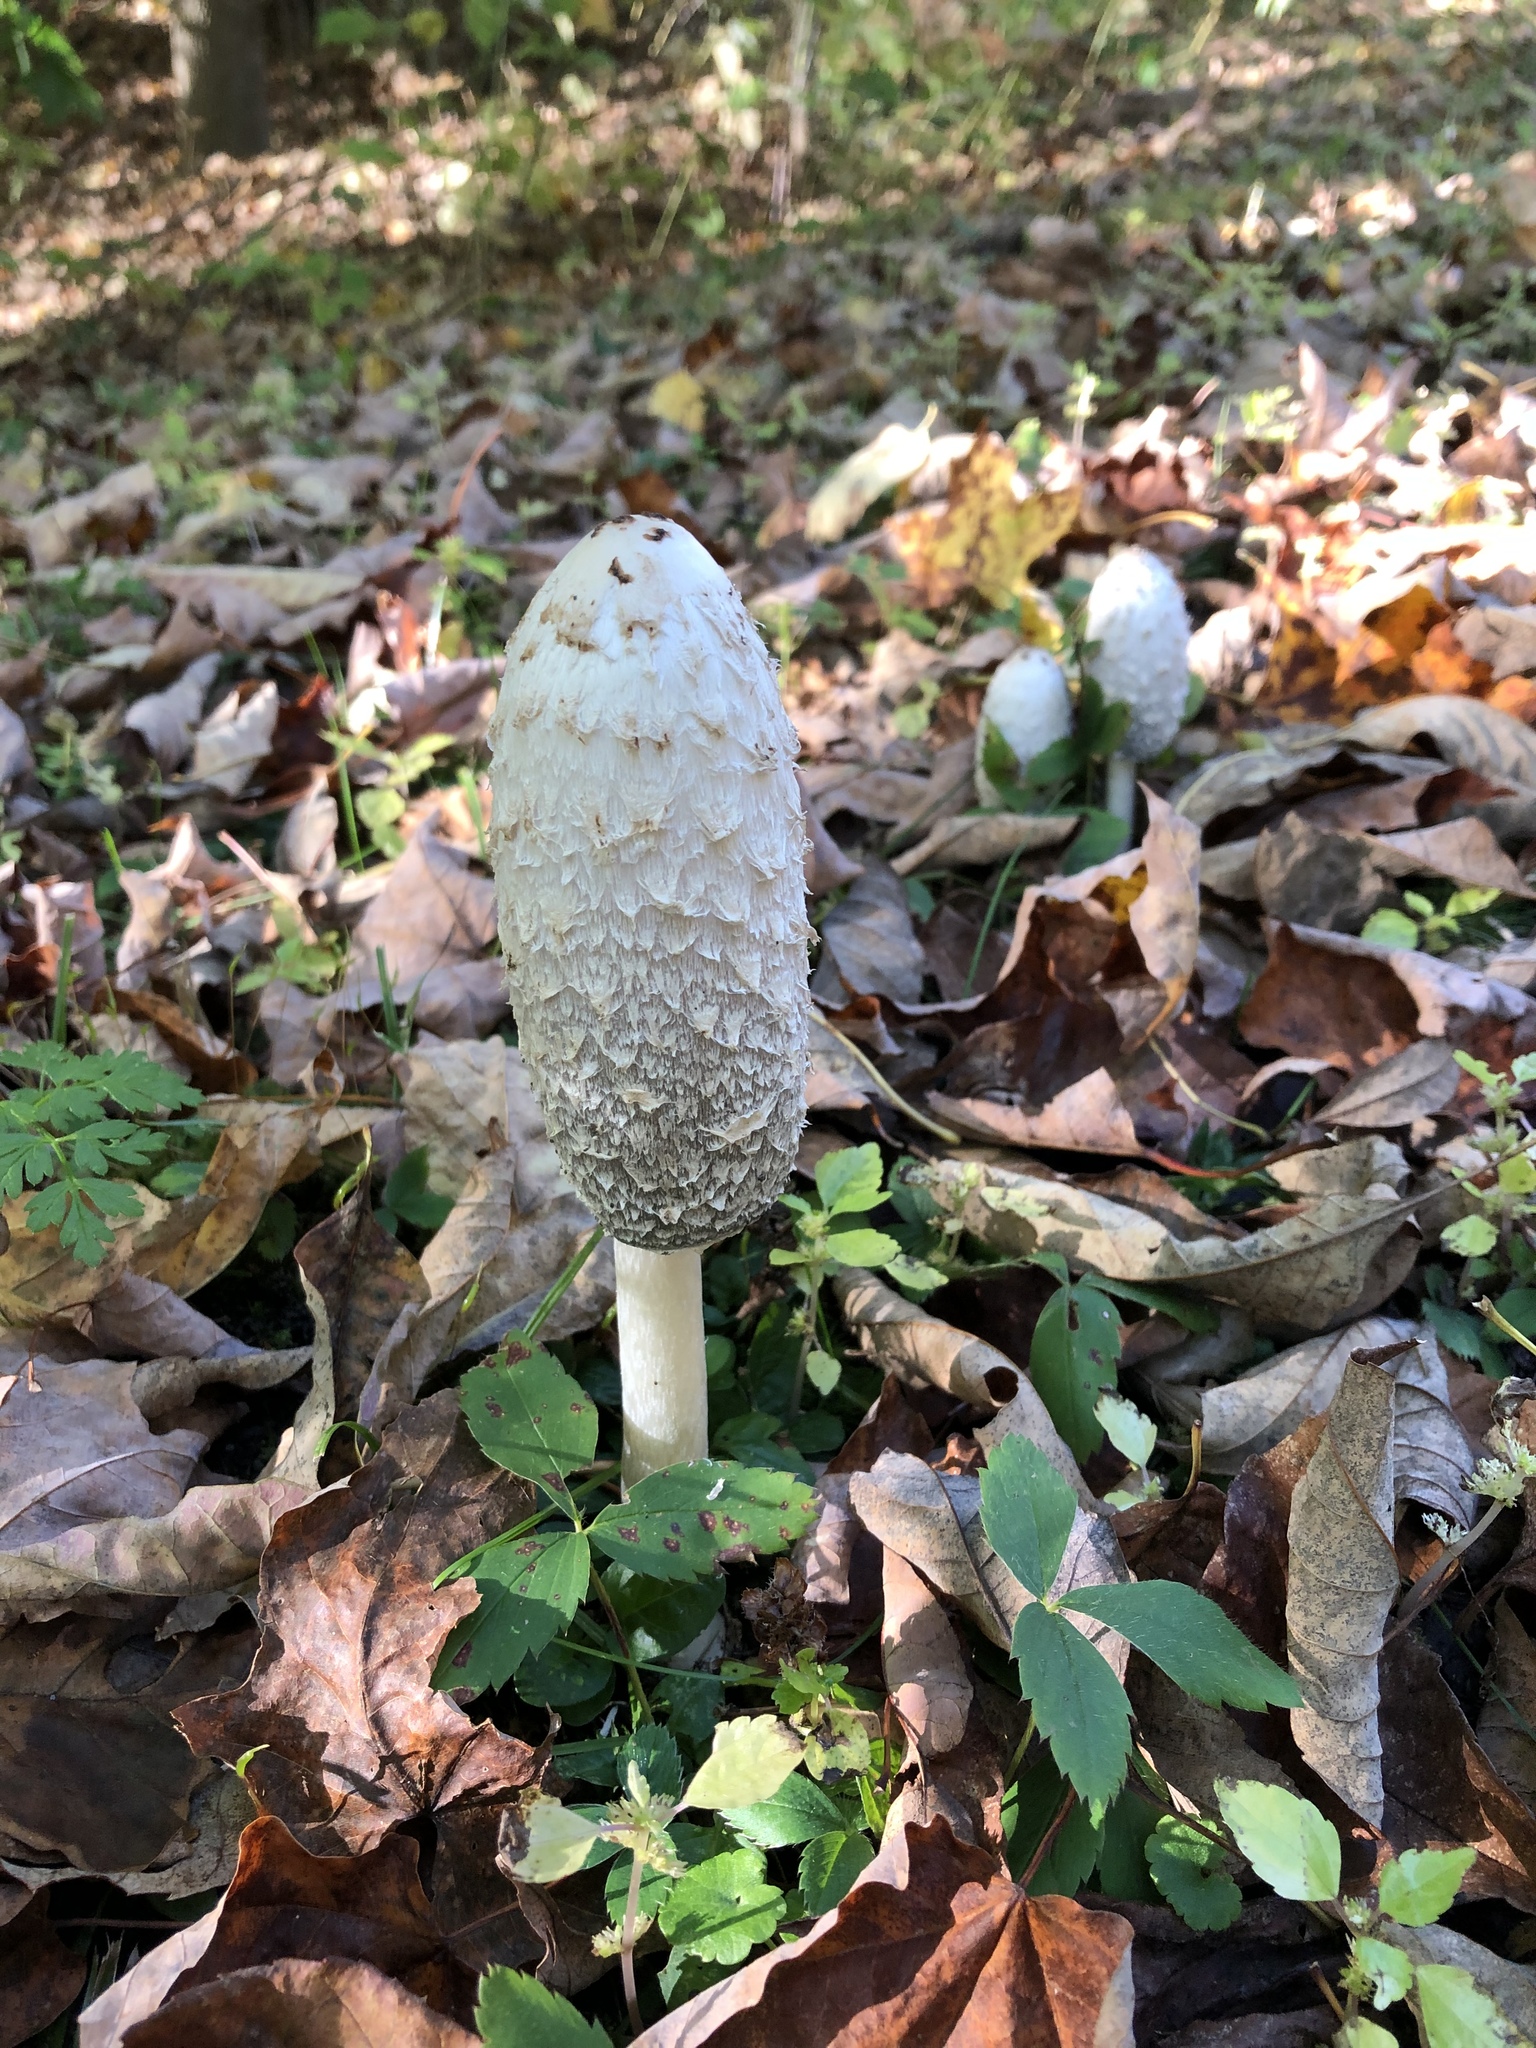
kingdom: Fungi
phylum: Basidiomycota
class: Agaricomycetes
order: Agaricales
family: Agaricaceae
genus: Coprinus
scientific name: Coprinus comatus
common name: Lawyer's wig
